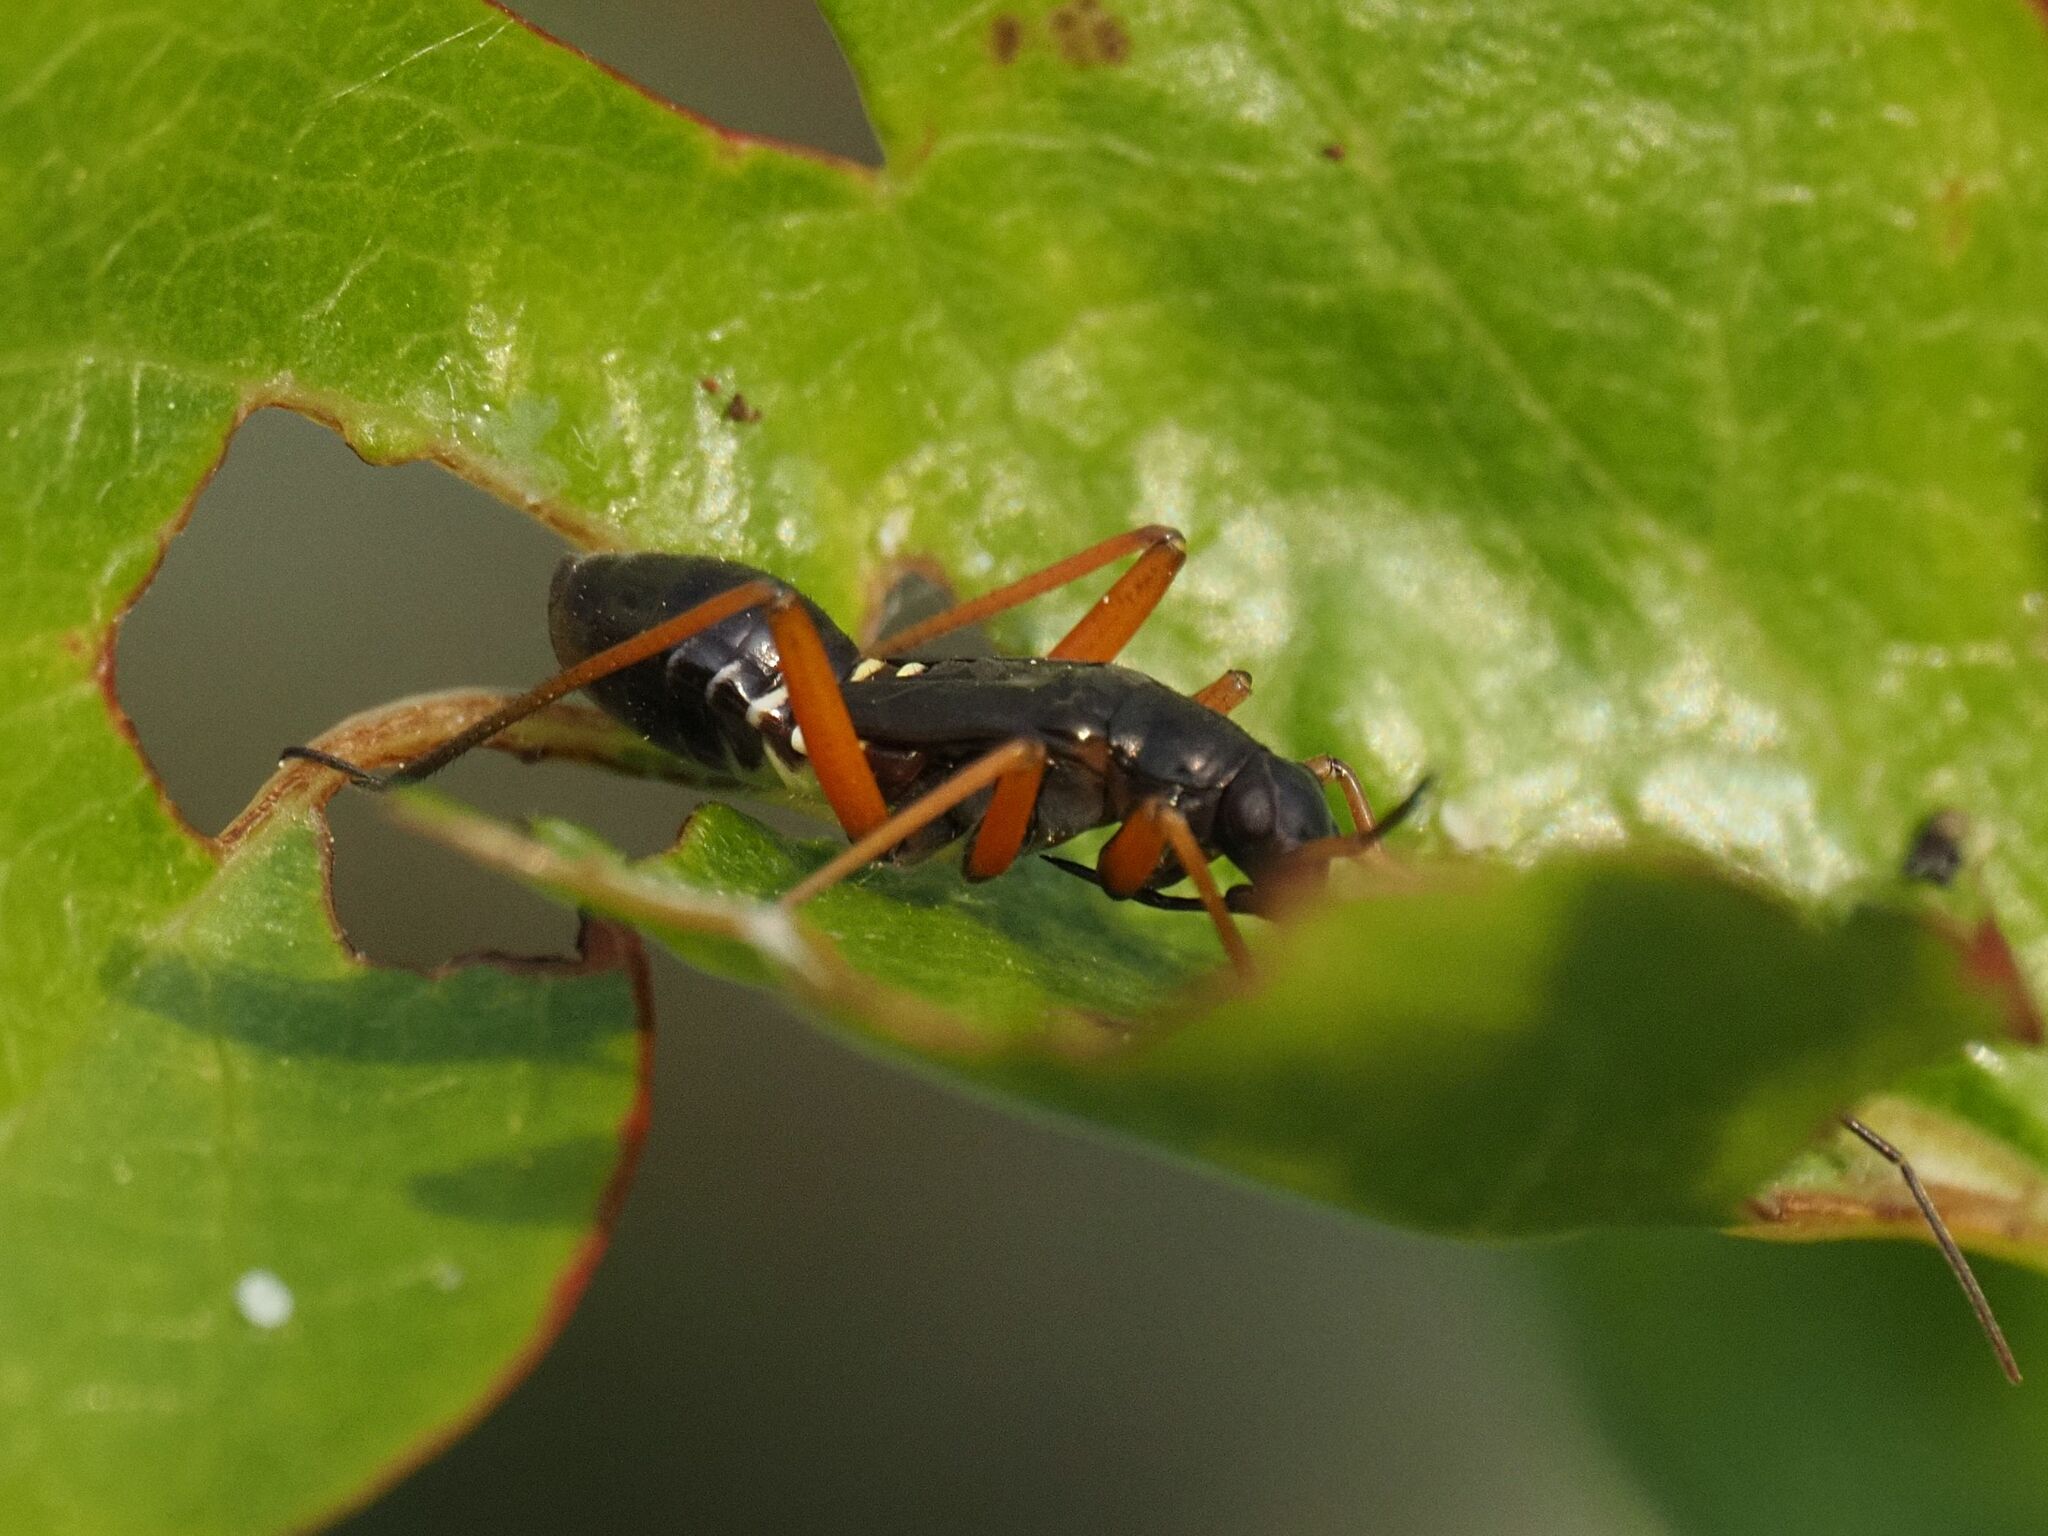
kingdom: Animalia
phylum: Arthropoda
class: Insecta
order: Hemiptera
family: Miridae
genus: Miris
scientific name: Miris striatus
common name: Fine streaked bugkin
